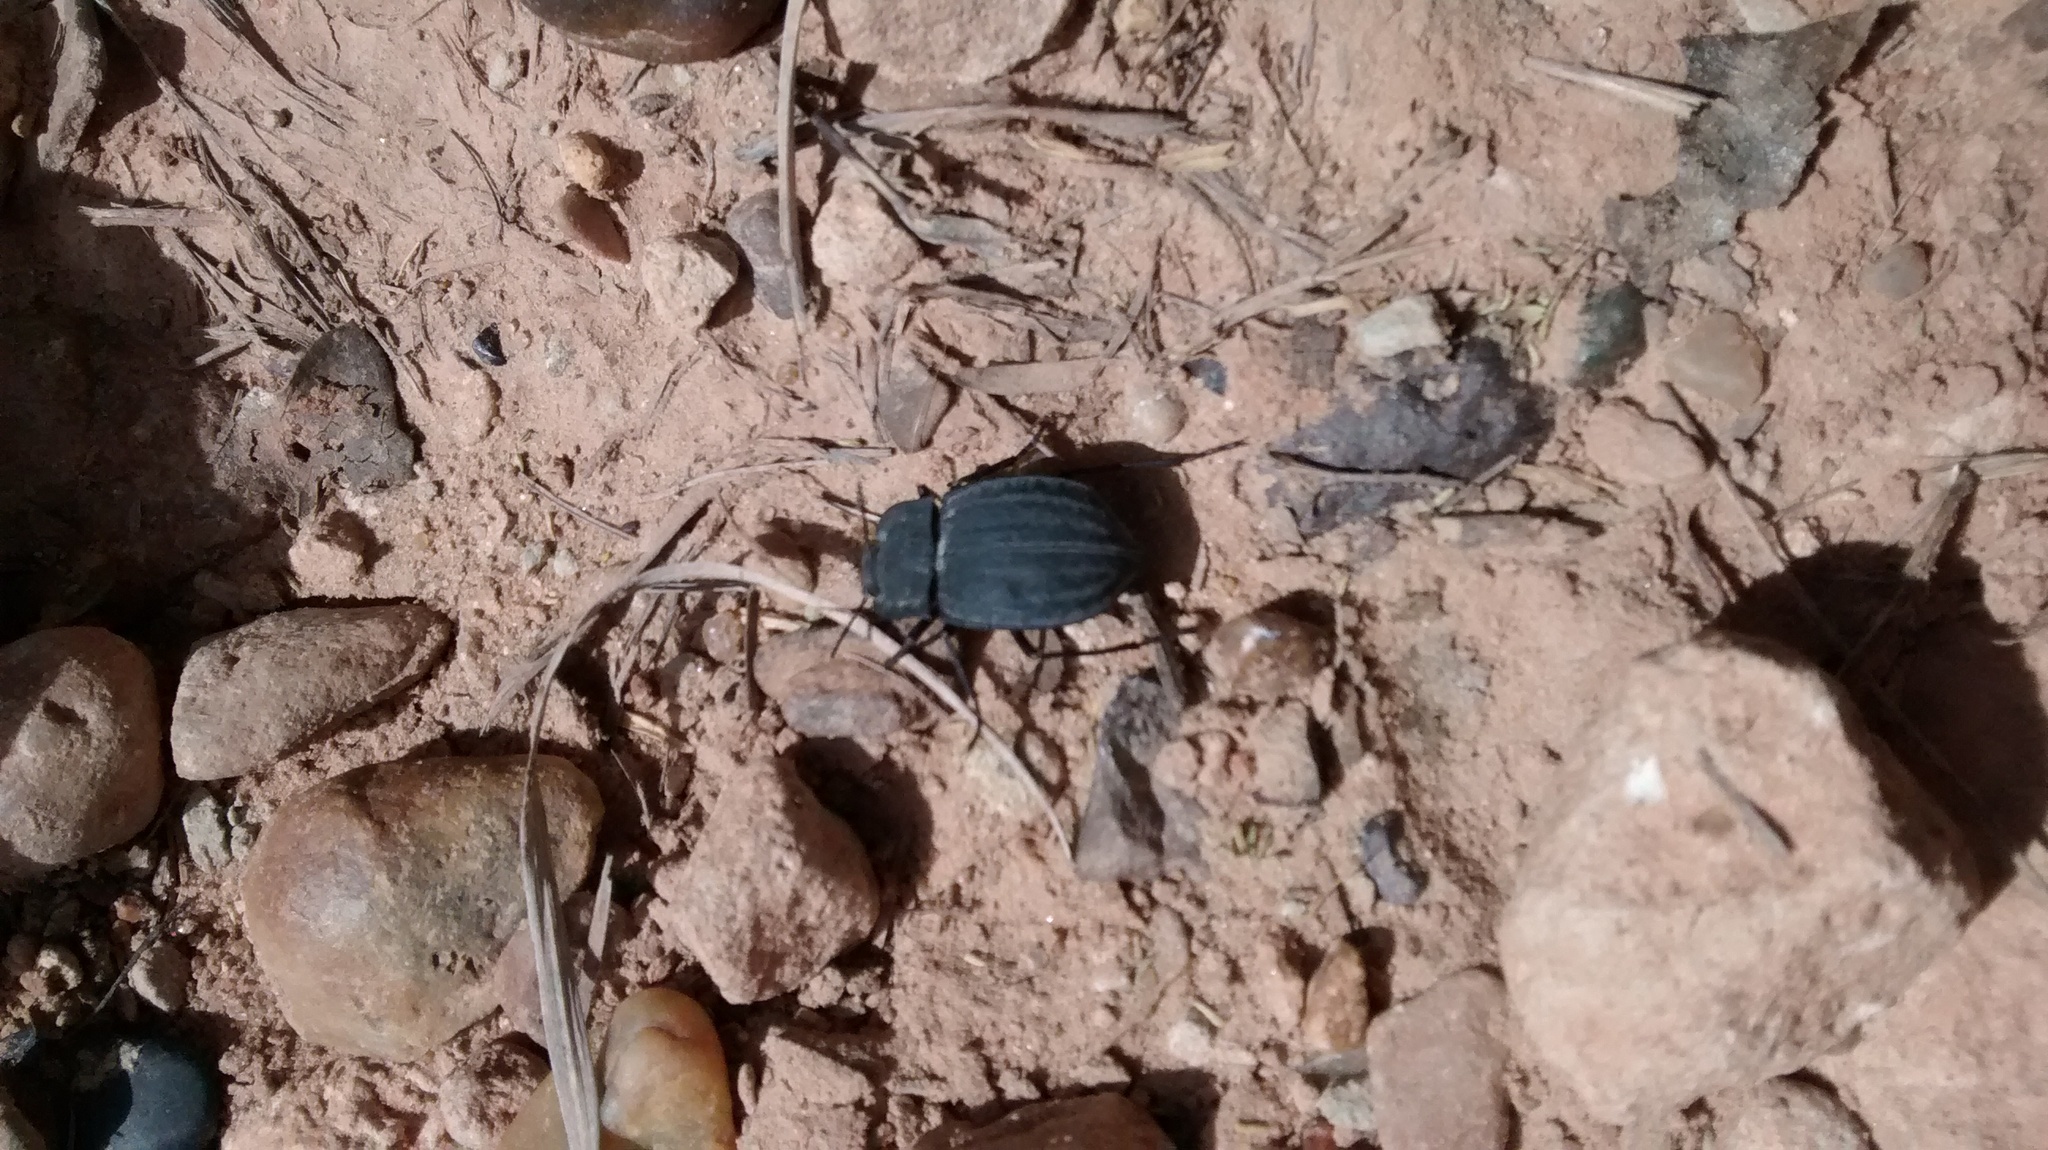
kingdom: Animalia
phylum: Arthropoda
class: Insecta
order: Coleoptera
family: Tenebrionidae
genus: Stenomorpha
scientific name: Stenomorpha opaca
